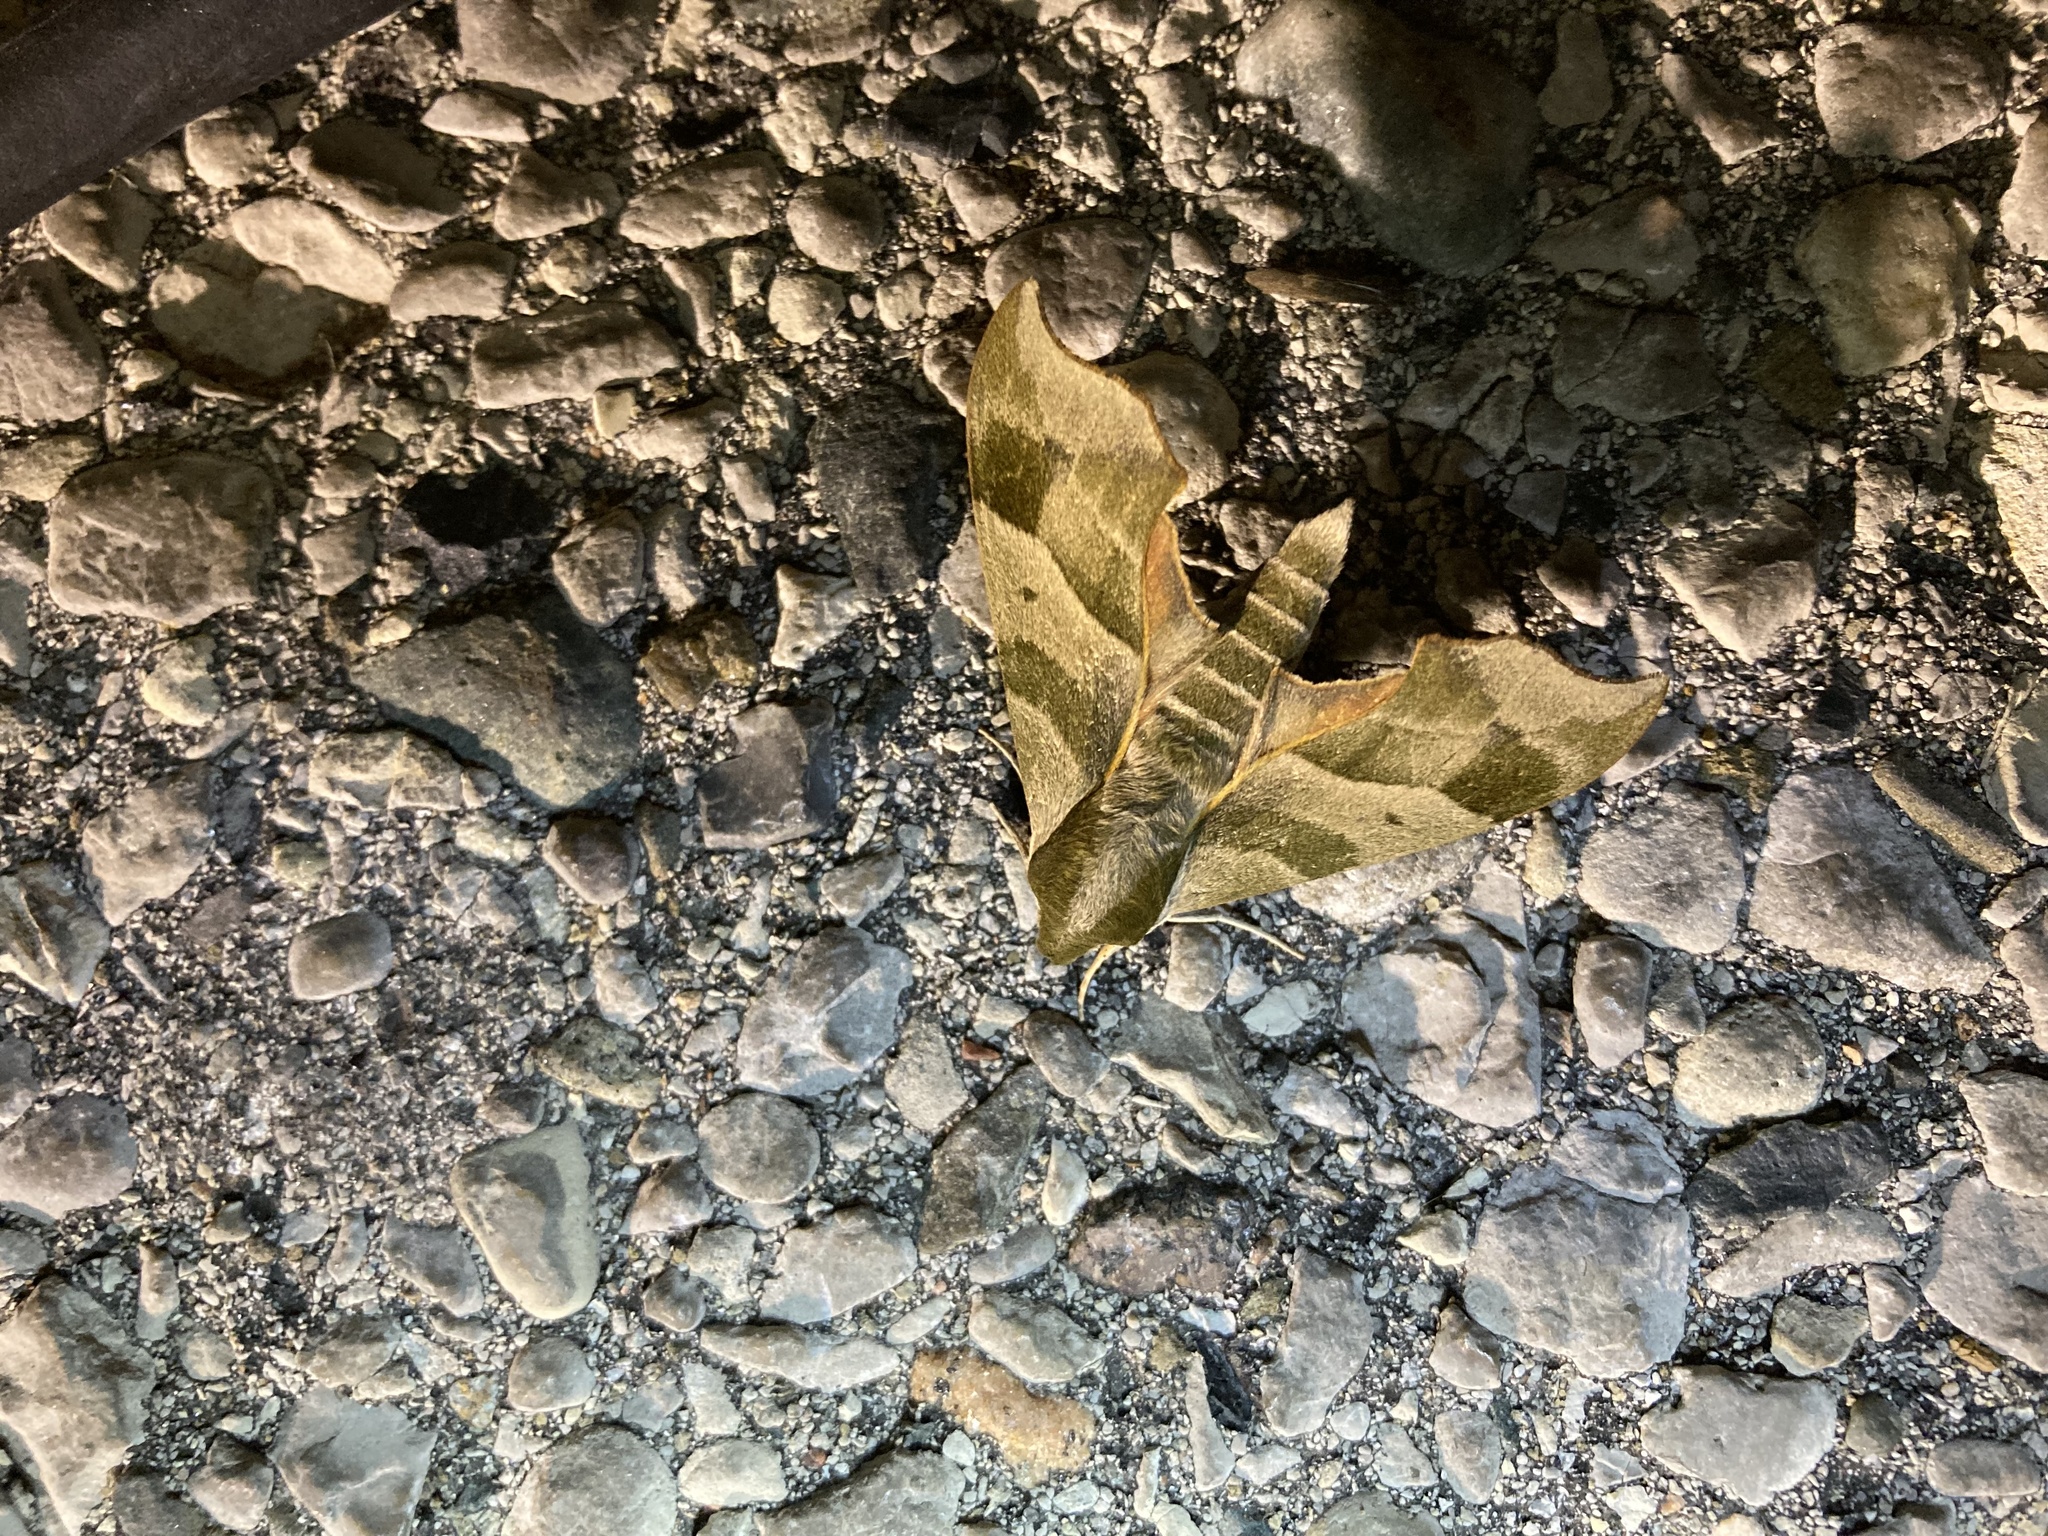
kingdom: Animalia
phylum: Arthropoda
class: Insecta
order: Lepidoptera
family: Sphingidae
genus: Darapsa
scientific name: Darapsa myron
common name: Hog sphinx
